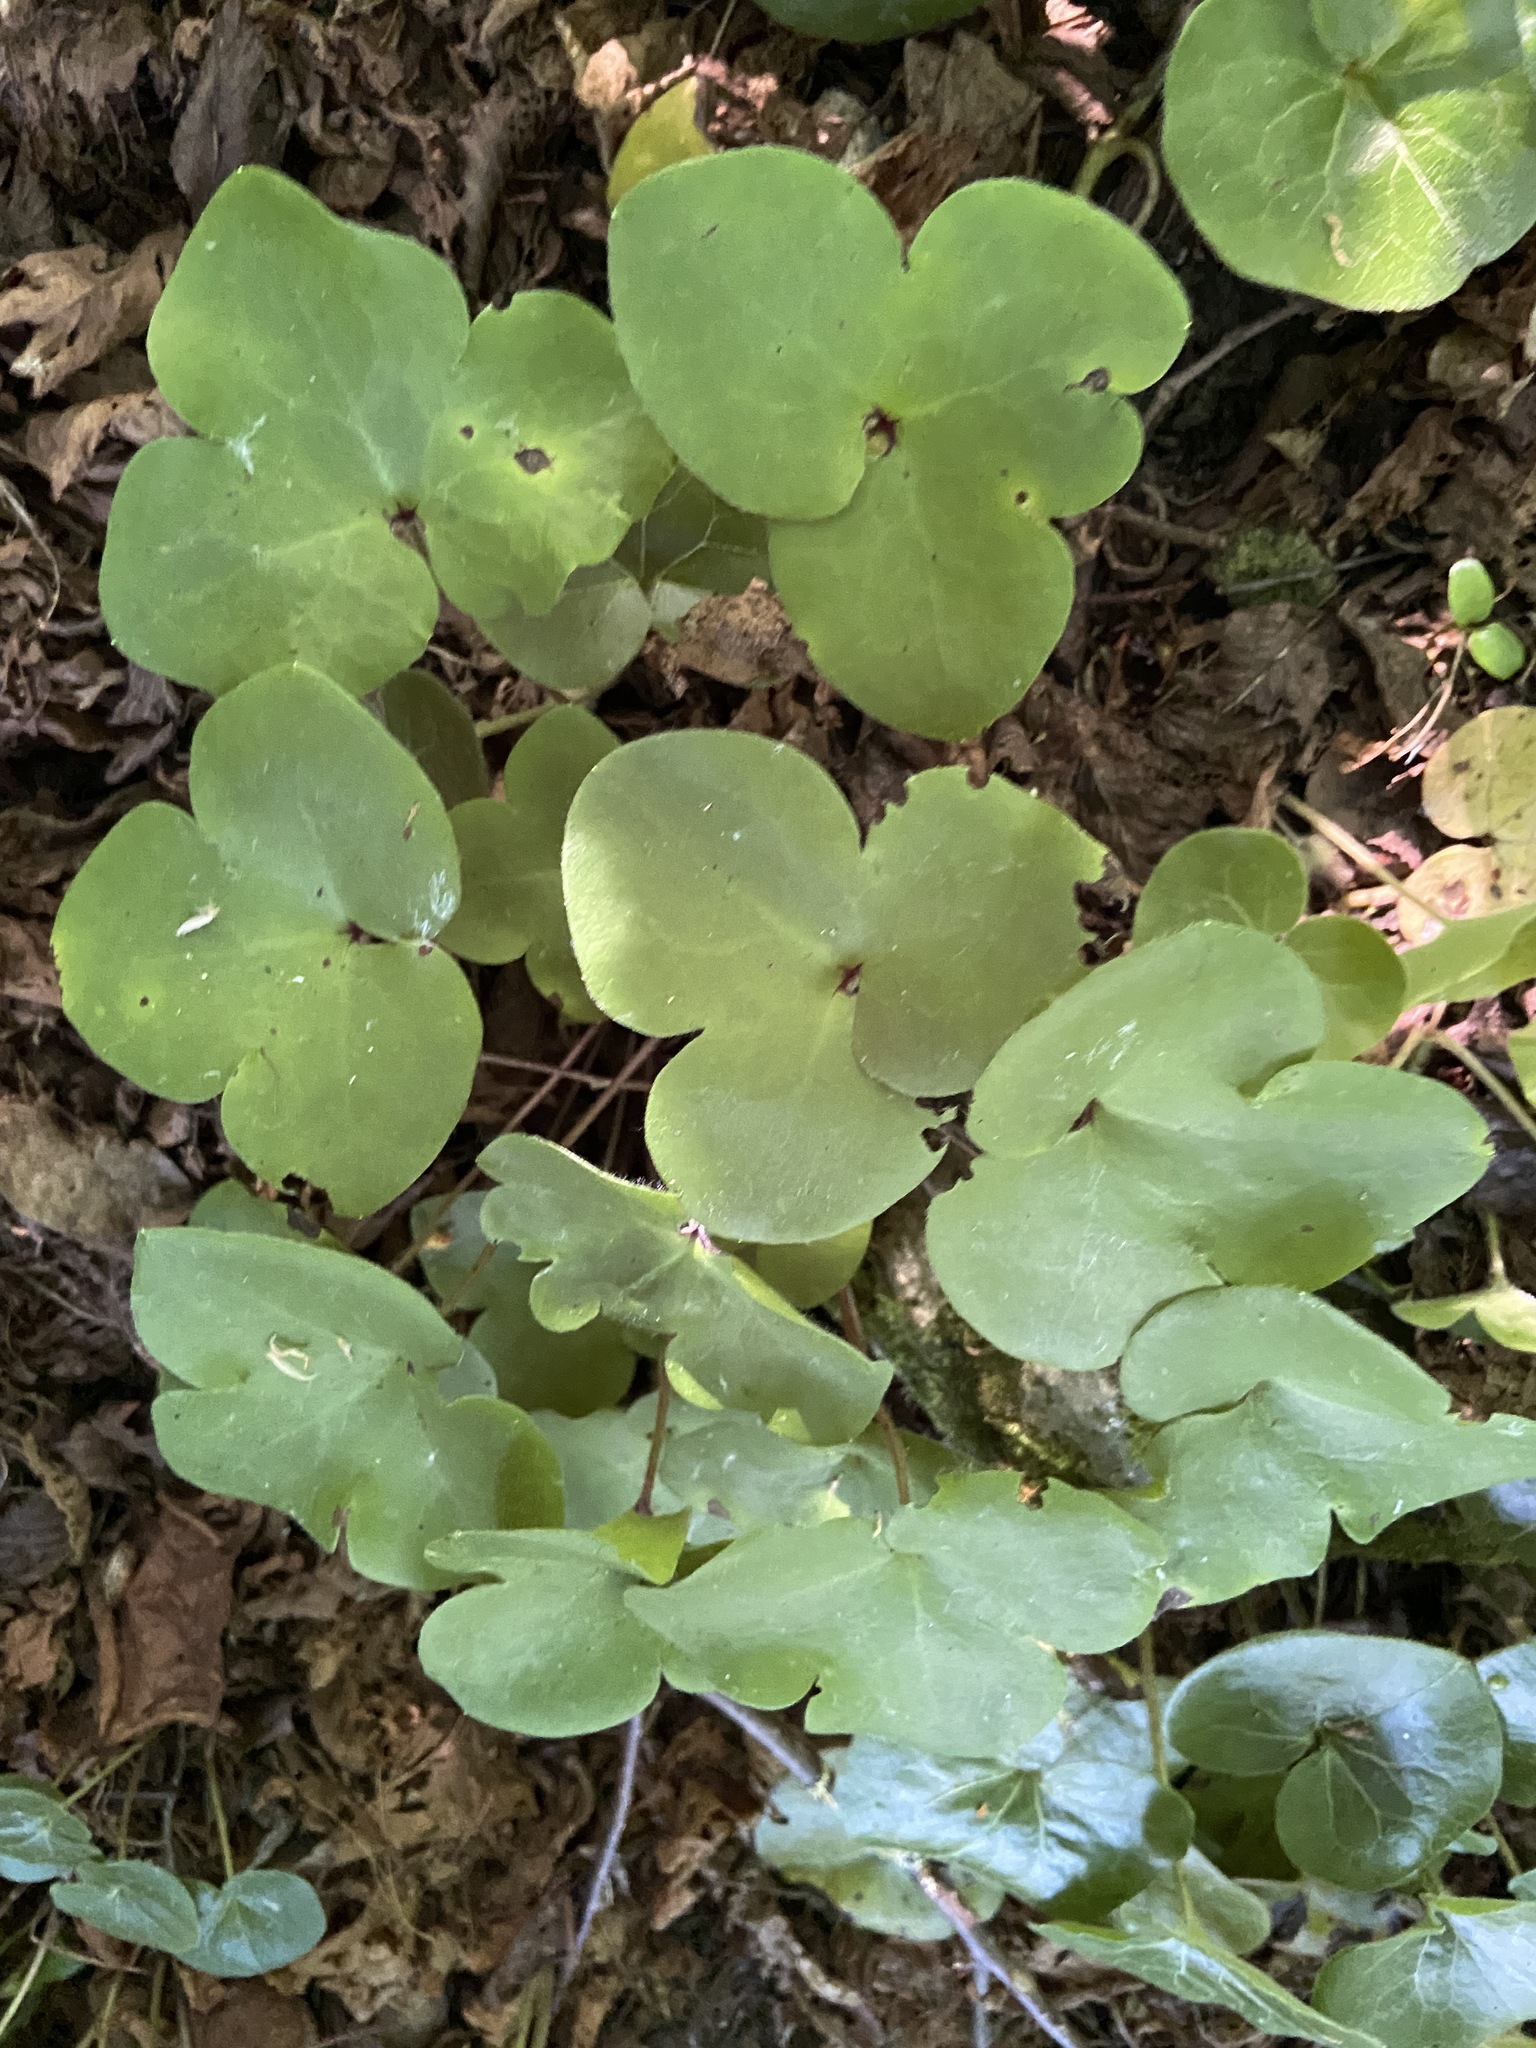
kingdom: Plantae
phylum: Tracheophyta
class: Magnoliopsida
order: Ranunculales
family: Ranunculaceae
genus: Hepatica
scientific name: Hepatica nobilis
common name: Liverleaf
